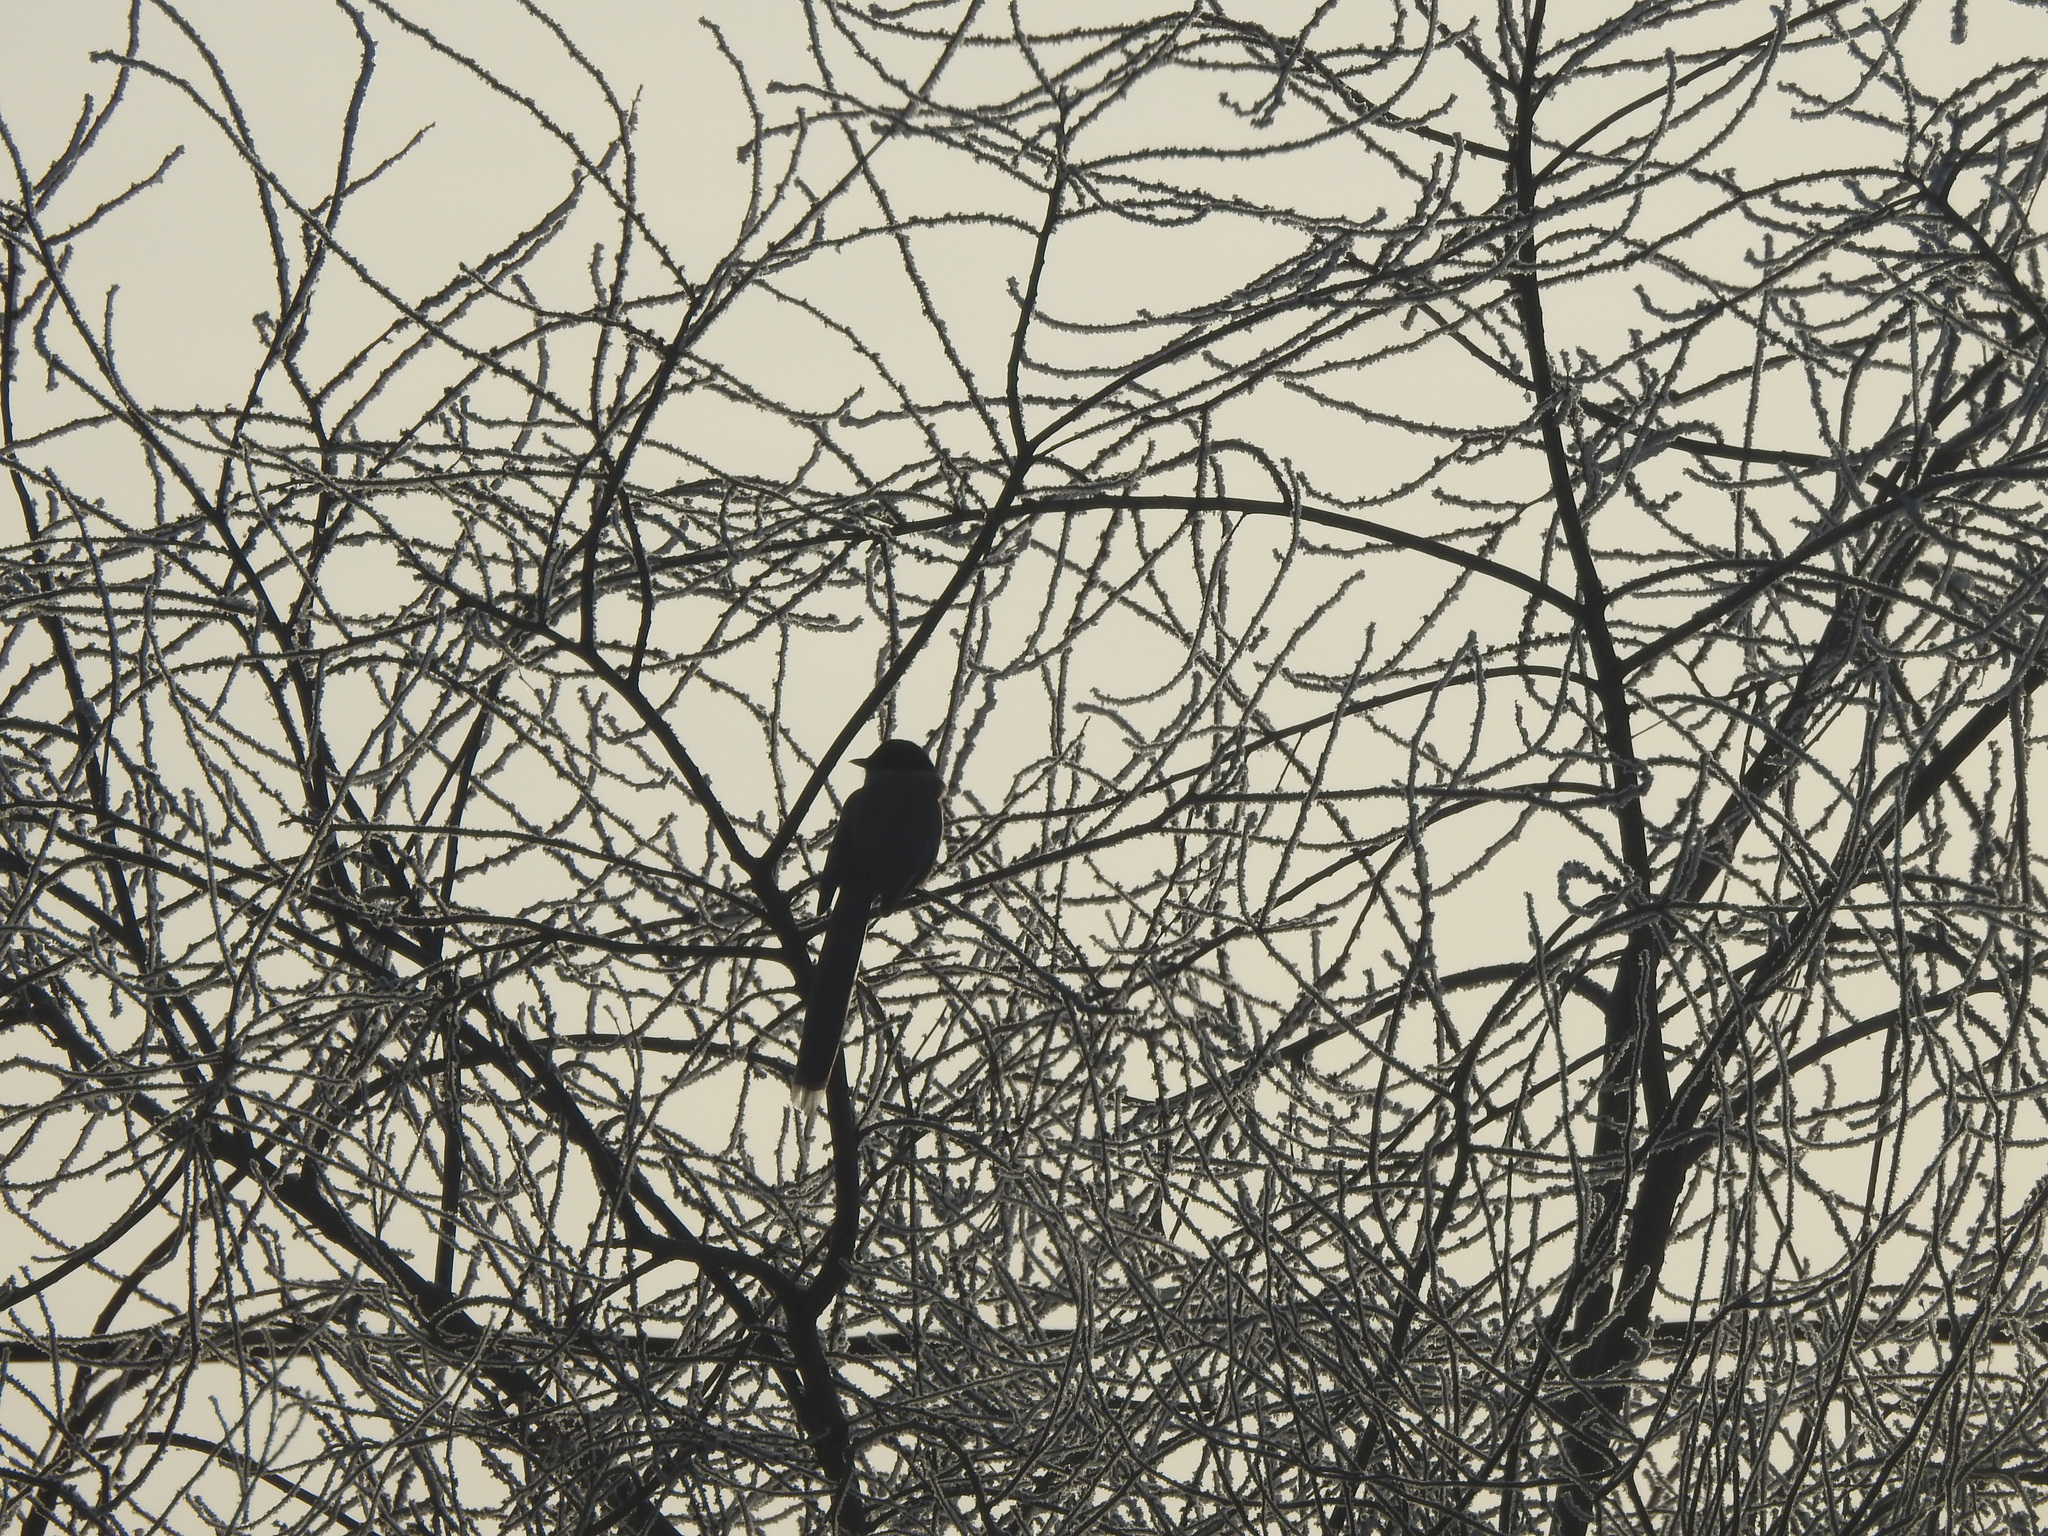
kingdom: Animalia
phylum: Chordata
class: Aves
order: Passeriformes
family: Corvidae
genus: Cyanopica
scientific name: Cyanopica cyanus
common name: Azure-winged magpie
